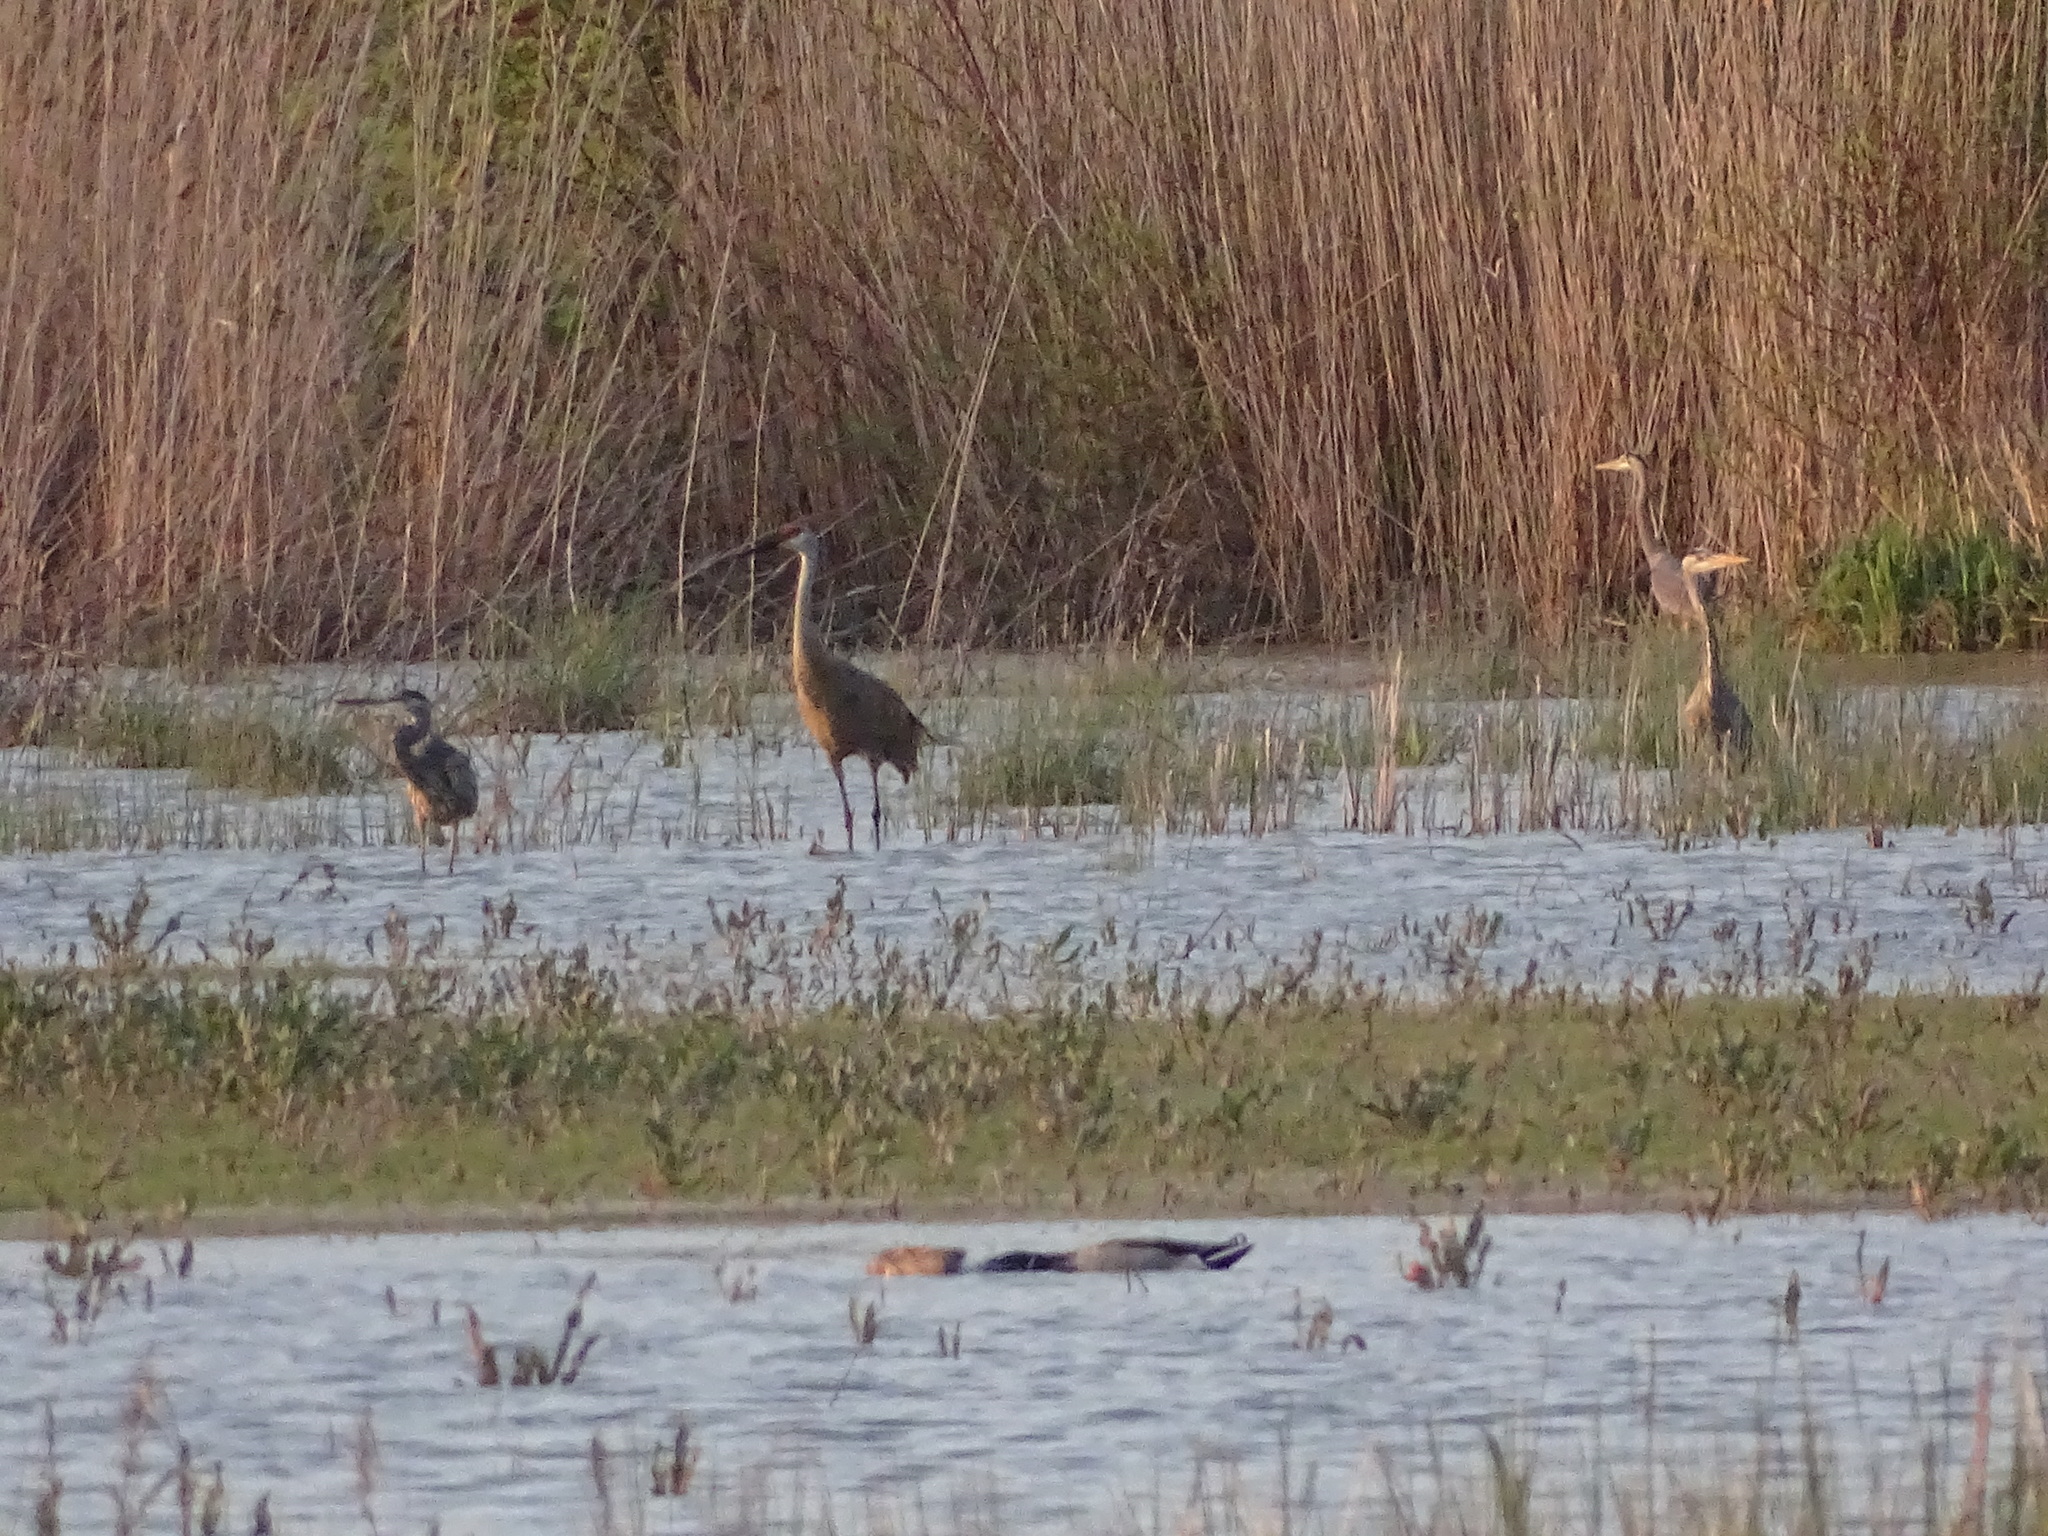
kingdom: Animalia
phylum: Chordata
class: Aves
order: Gruiformes
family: Gruidae
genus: Grus
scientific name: Grus canadensis
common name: Sandhill crane
